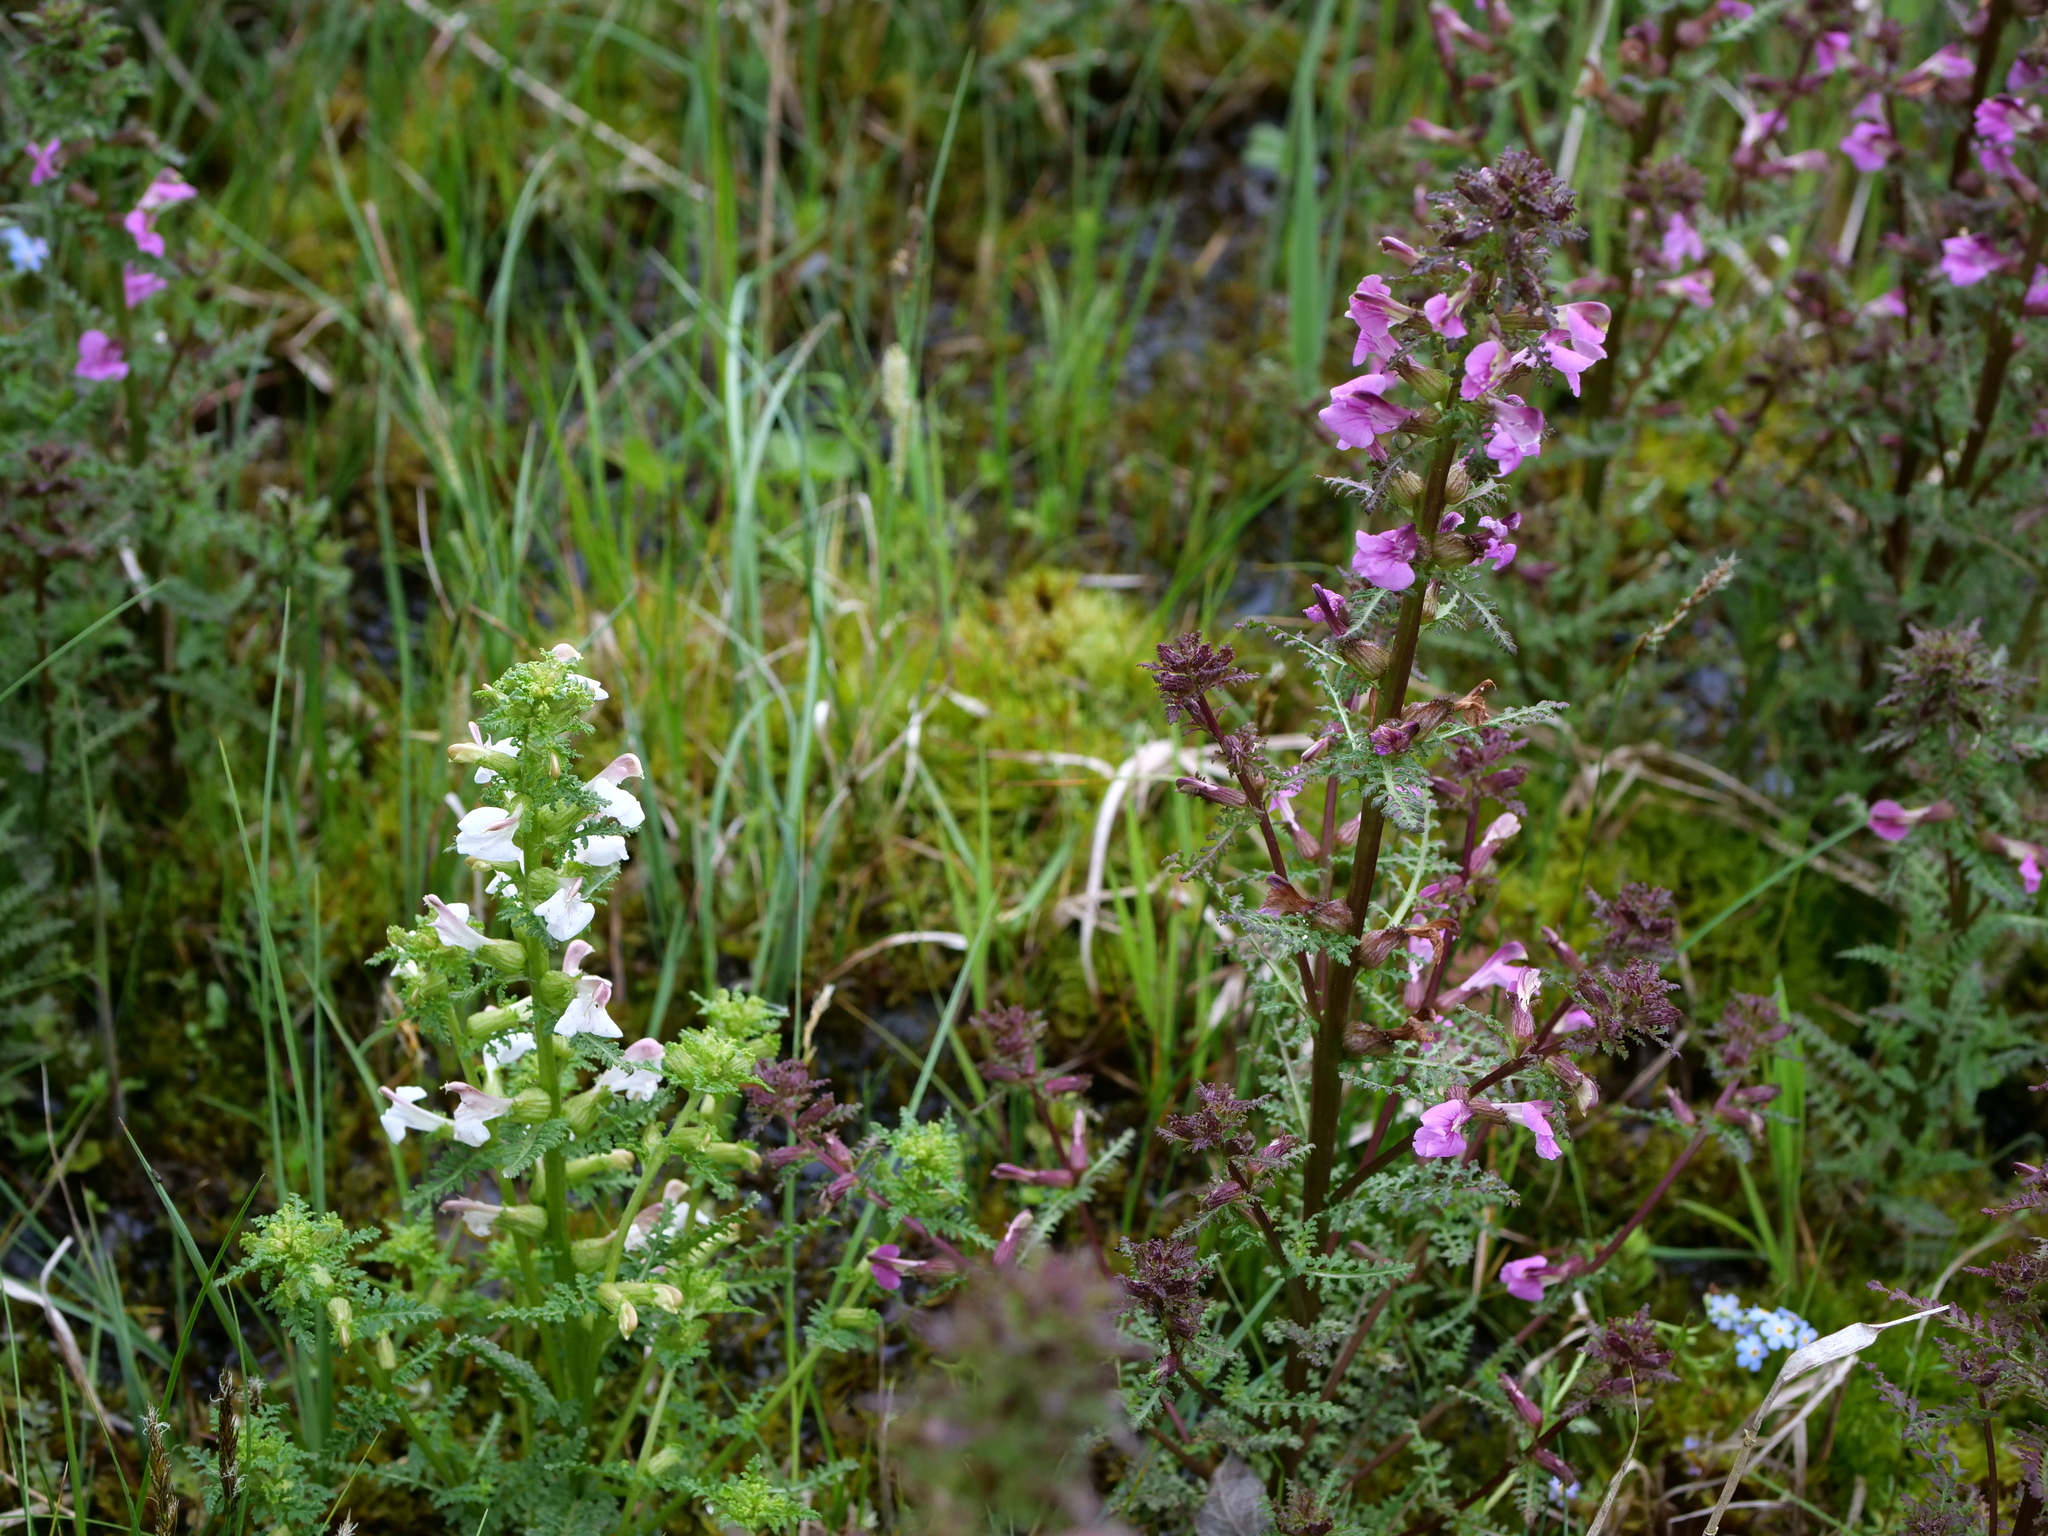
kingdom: Plantae
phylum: Tracheophyta
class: Magnoliopsida
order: Lamiales
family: Orobanchaceae
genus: Pedicularis
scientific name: Pedicularis palustris
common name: Marsh lousewort
